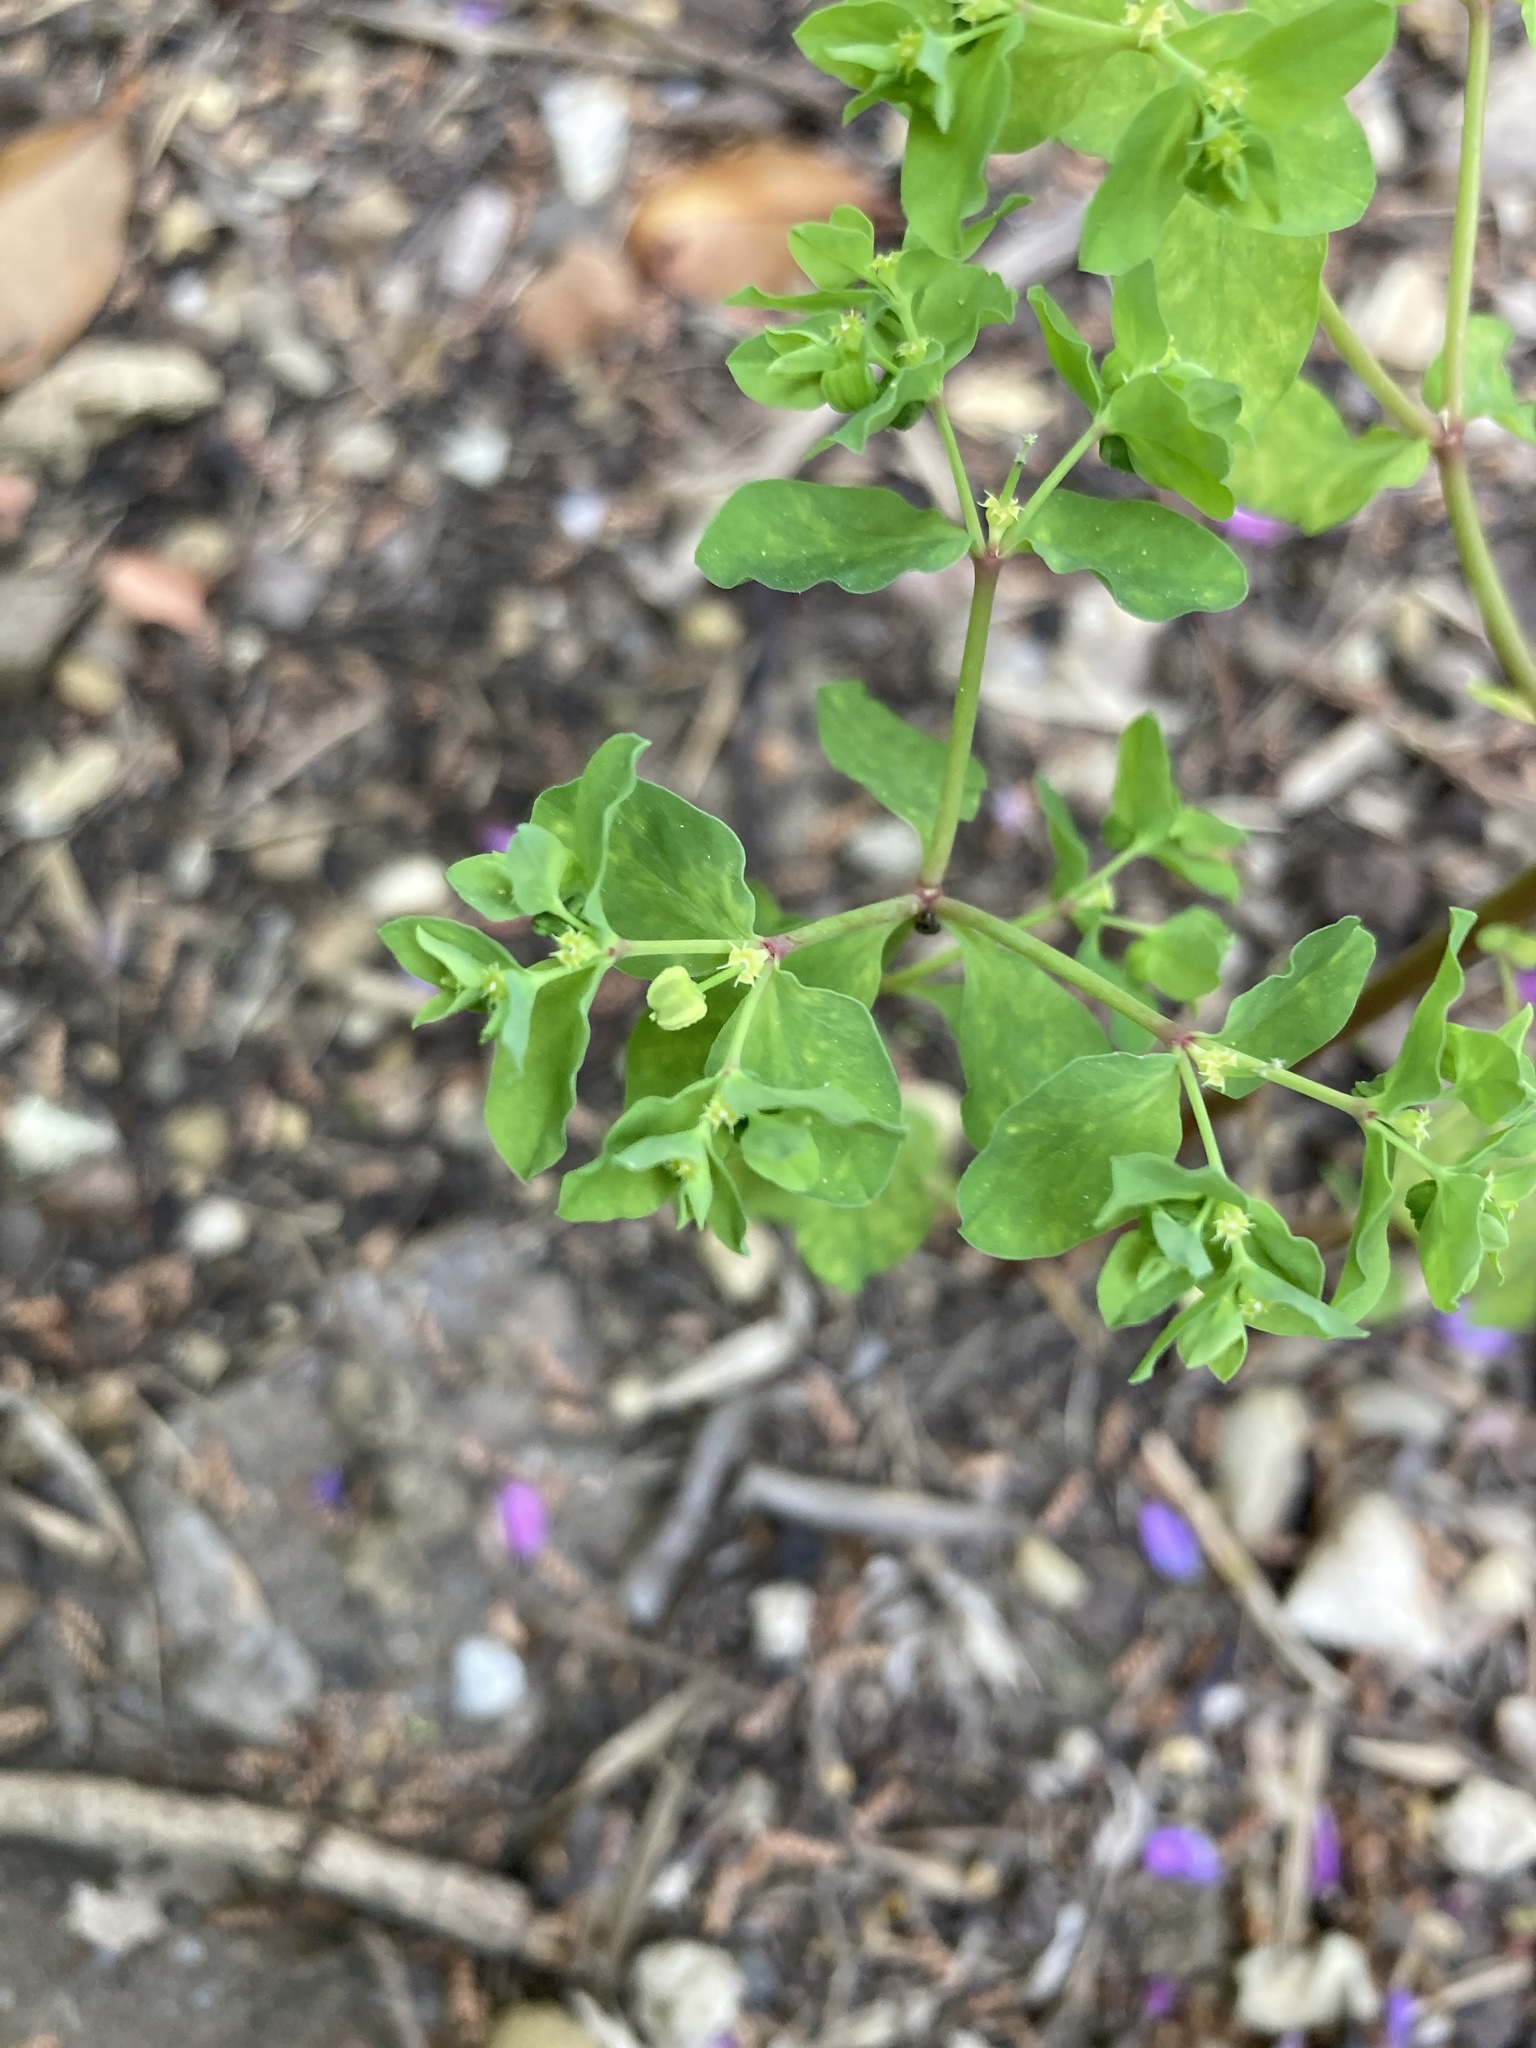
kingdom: Plantae
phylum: Tracheophyta
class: Magnoliopsida
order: Malpighiales
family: Euphorbiaceae
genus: Euphorbia
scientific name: Euphorbia peplus
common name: Petty spurge
